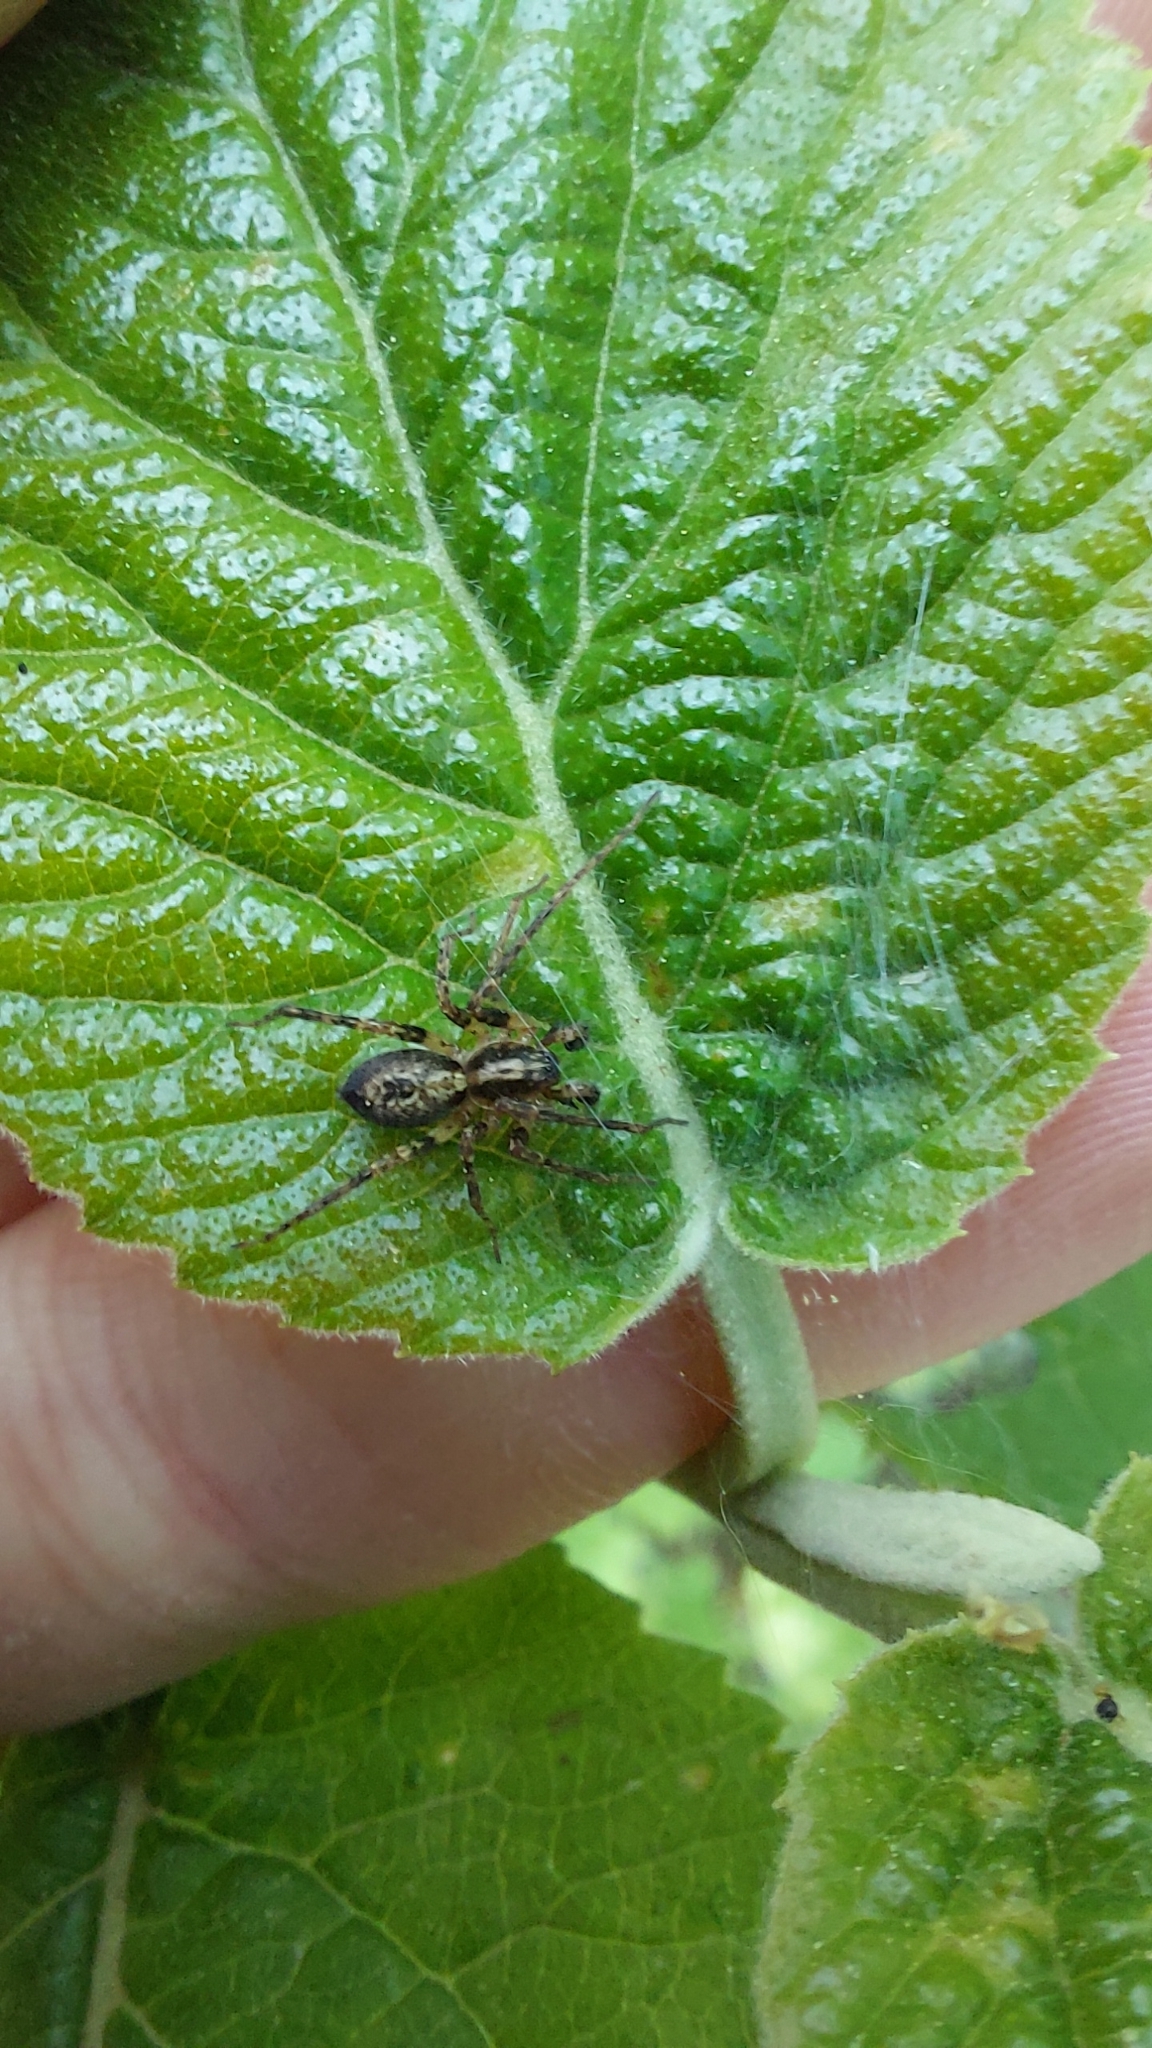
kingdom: Animalia
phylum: Arthropoda
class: Arachnida
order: Araneae
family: Anyphaenidae
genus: Anyphaena
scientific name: Anyphaena accentuata
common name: Buzzing spider
